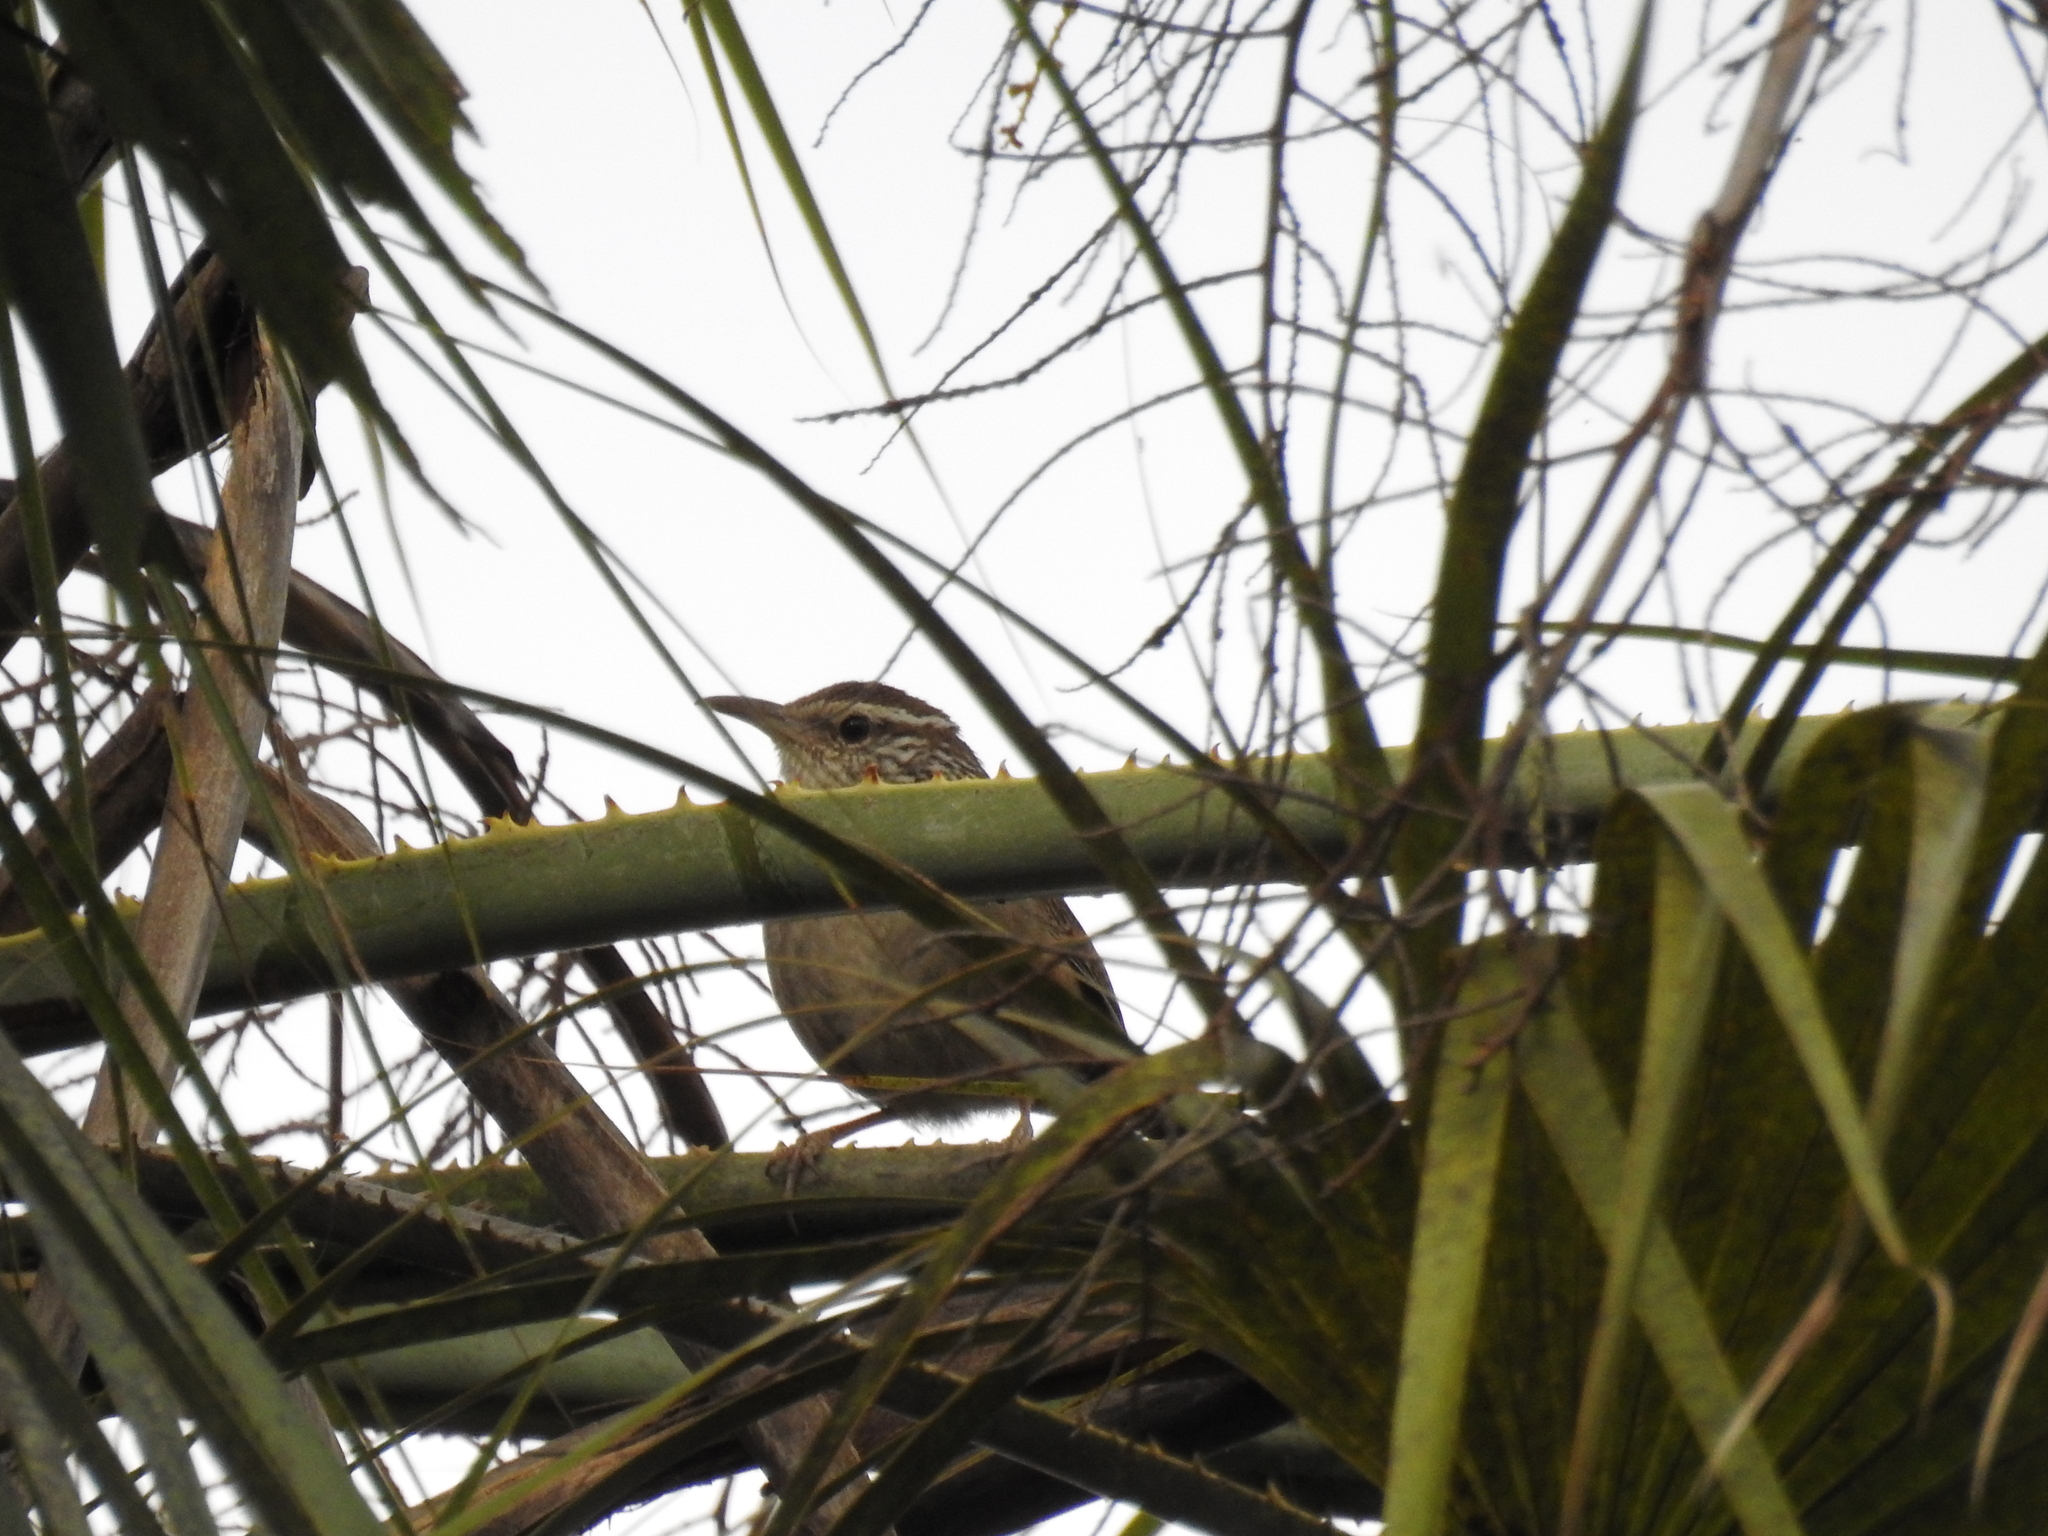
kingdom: Animalia
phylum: Chordata
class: Aves
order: Passeriformes
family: Troglodytidae
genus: Thryophilus
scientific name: Thryophilus sinaloa
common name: Sinaloa wren
